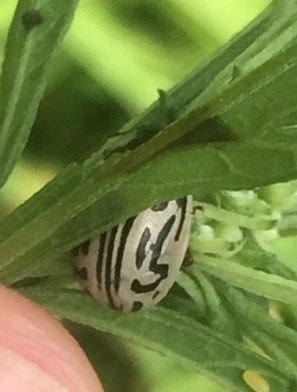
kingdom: Animalia
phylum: Arthropoda
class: Insecta
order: Coleoptera
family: Chrysomelidae
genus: Calligrapha
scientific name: Calligrapha
